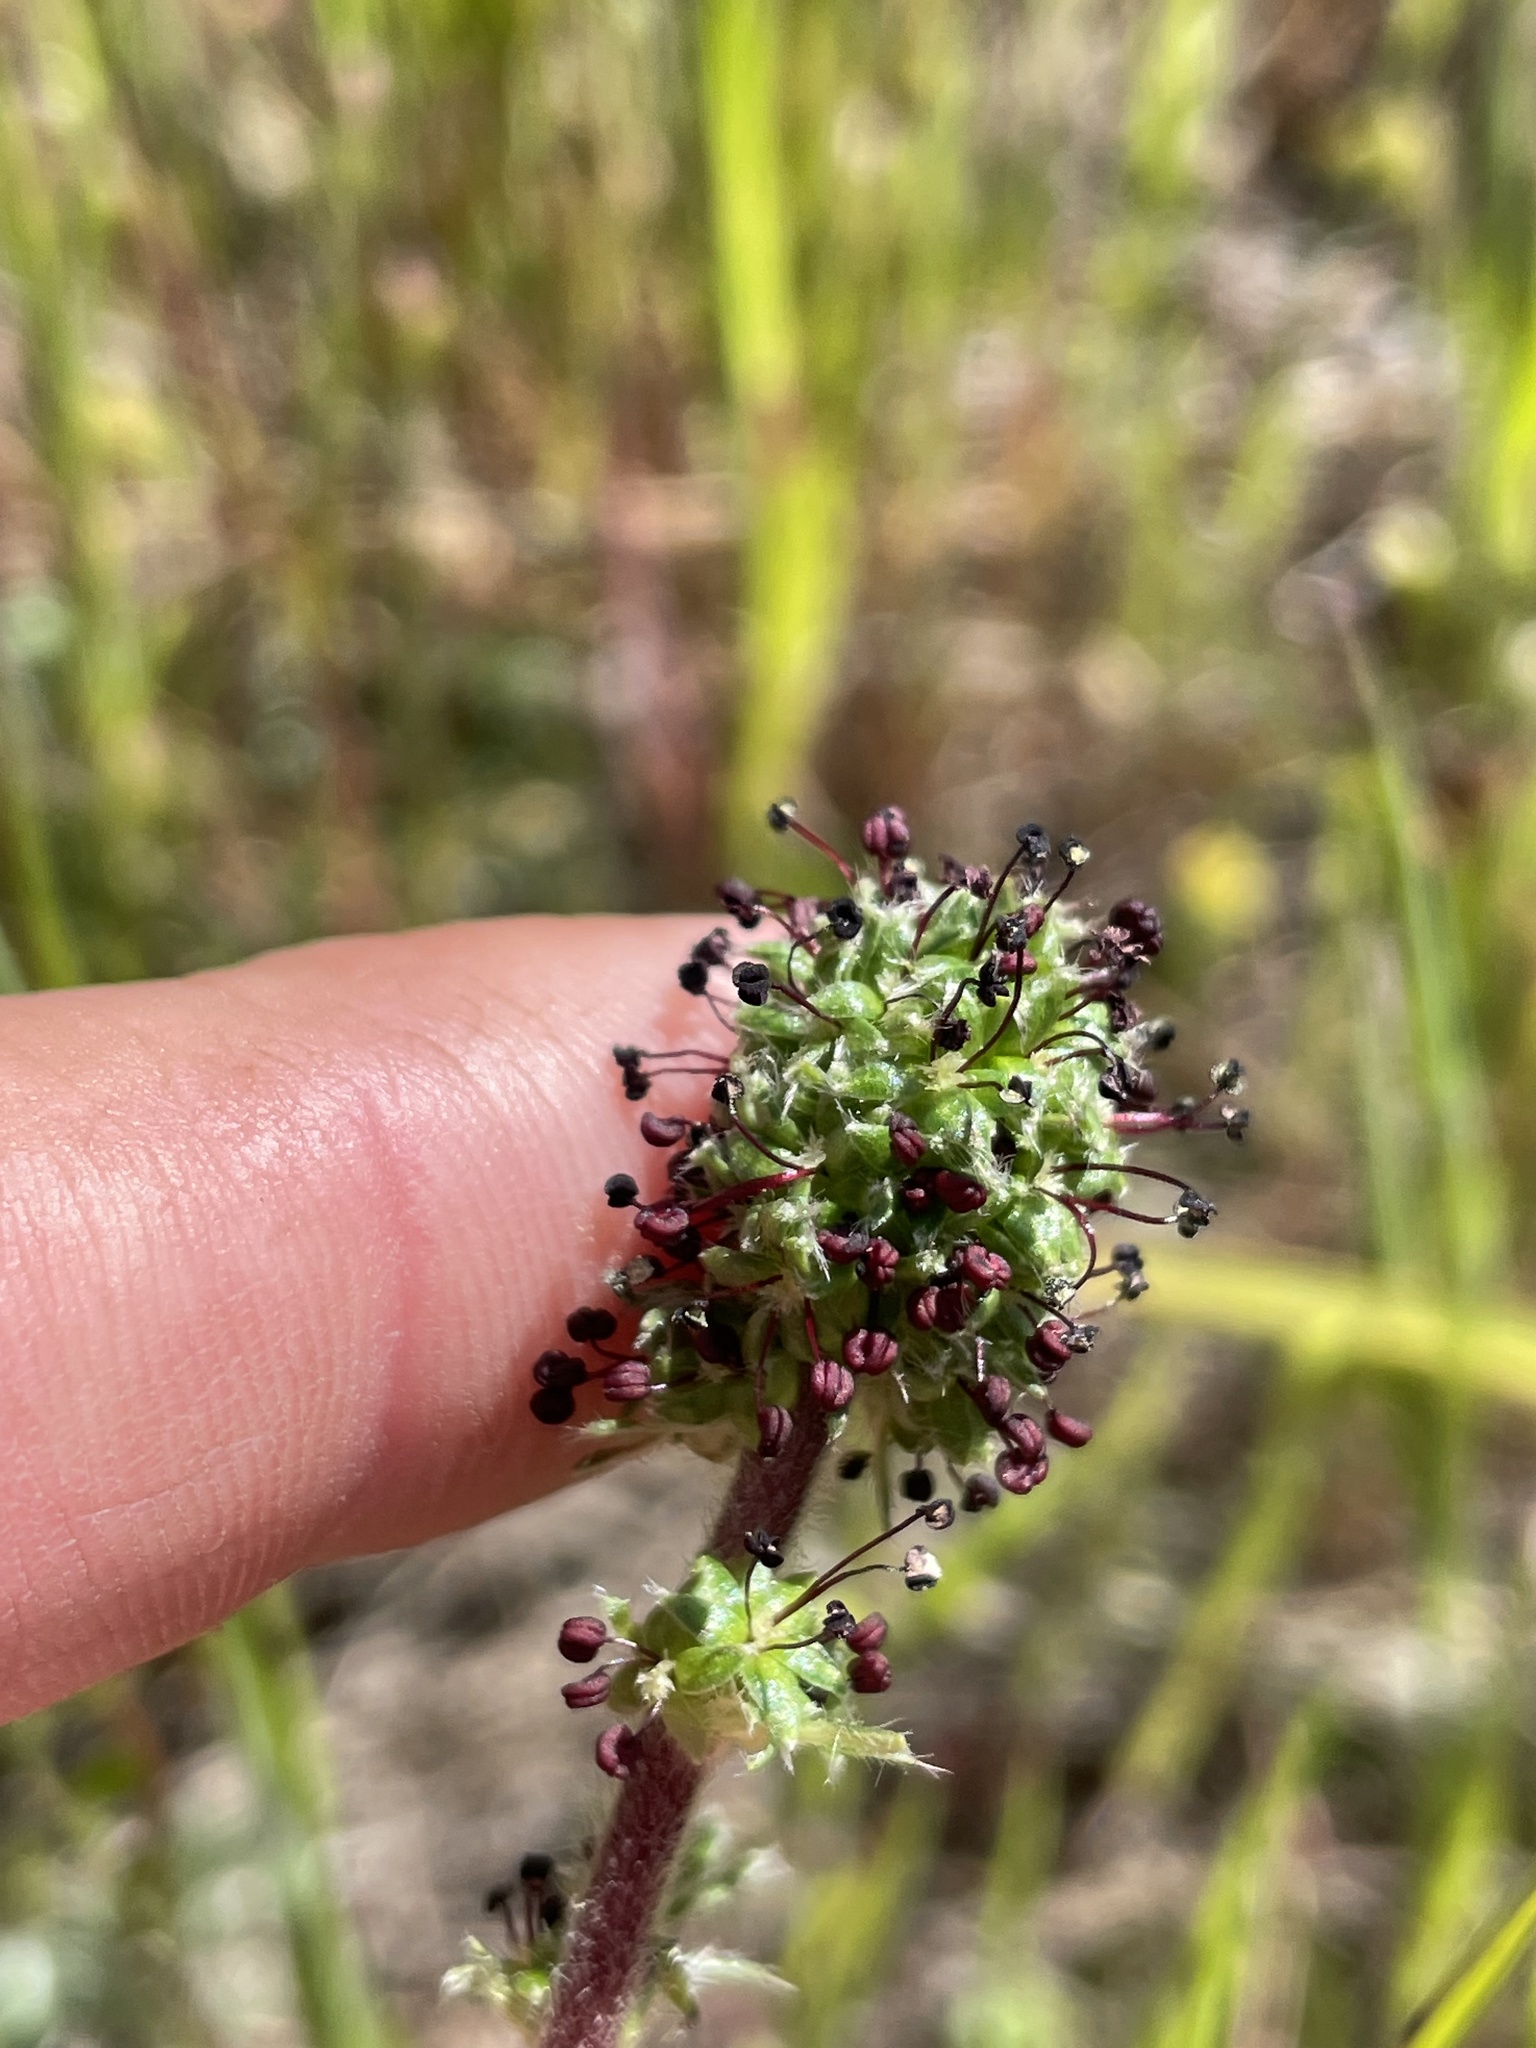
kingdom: Plantae
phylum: Tracheophyta
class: Magnoliopsida
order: Rosales
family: Rosaceae
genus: Acaena
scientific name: Acaena pinnatifida
